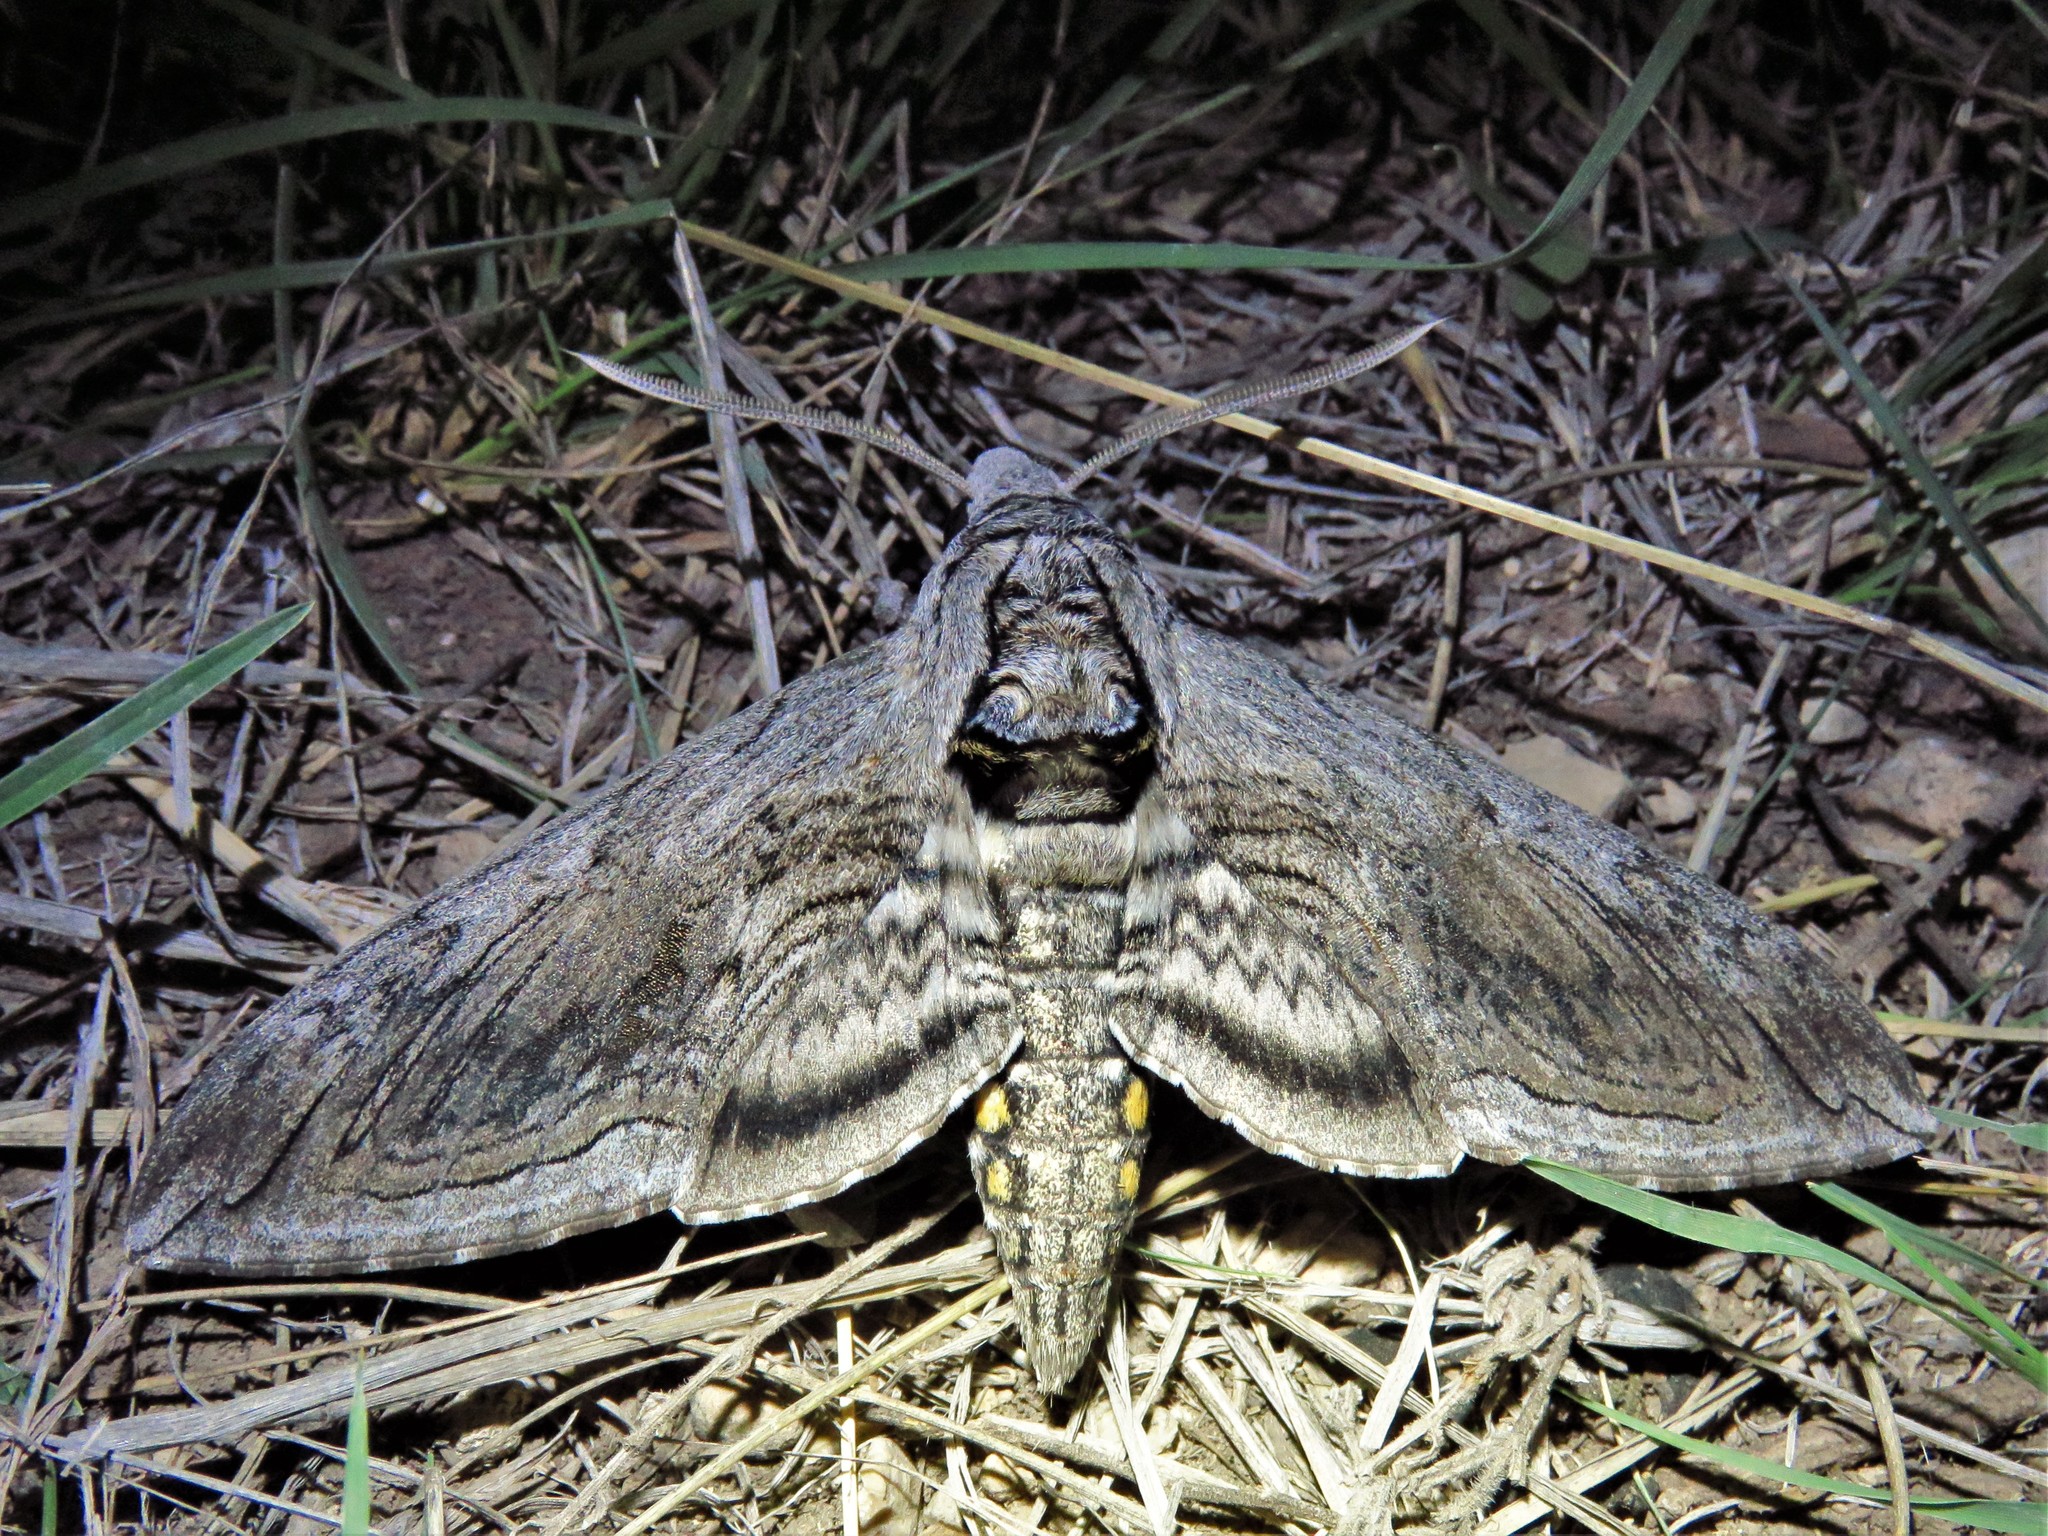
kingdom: Animalia
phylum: Arthropoda
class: Insecta
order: Lepidoptera
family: Sphingidae
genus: Manduca
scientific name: Manduca quinquemaculatus
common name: Five-spotted hawk-moth
